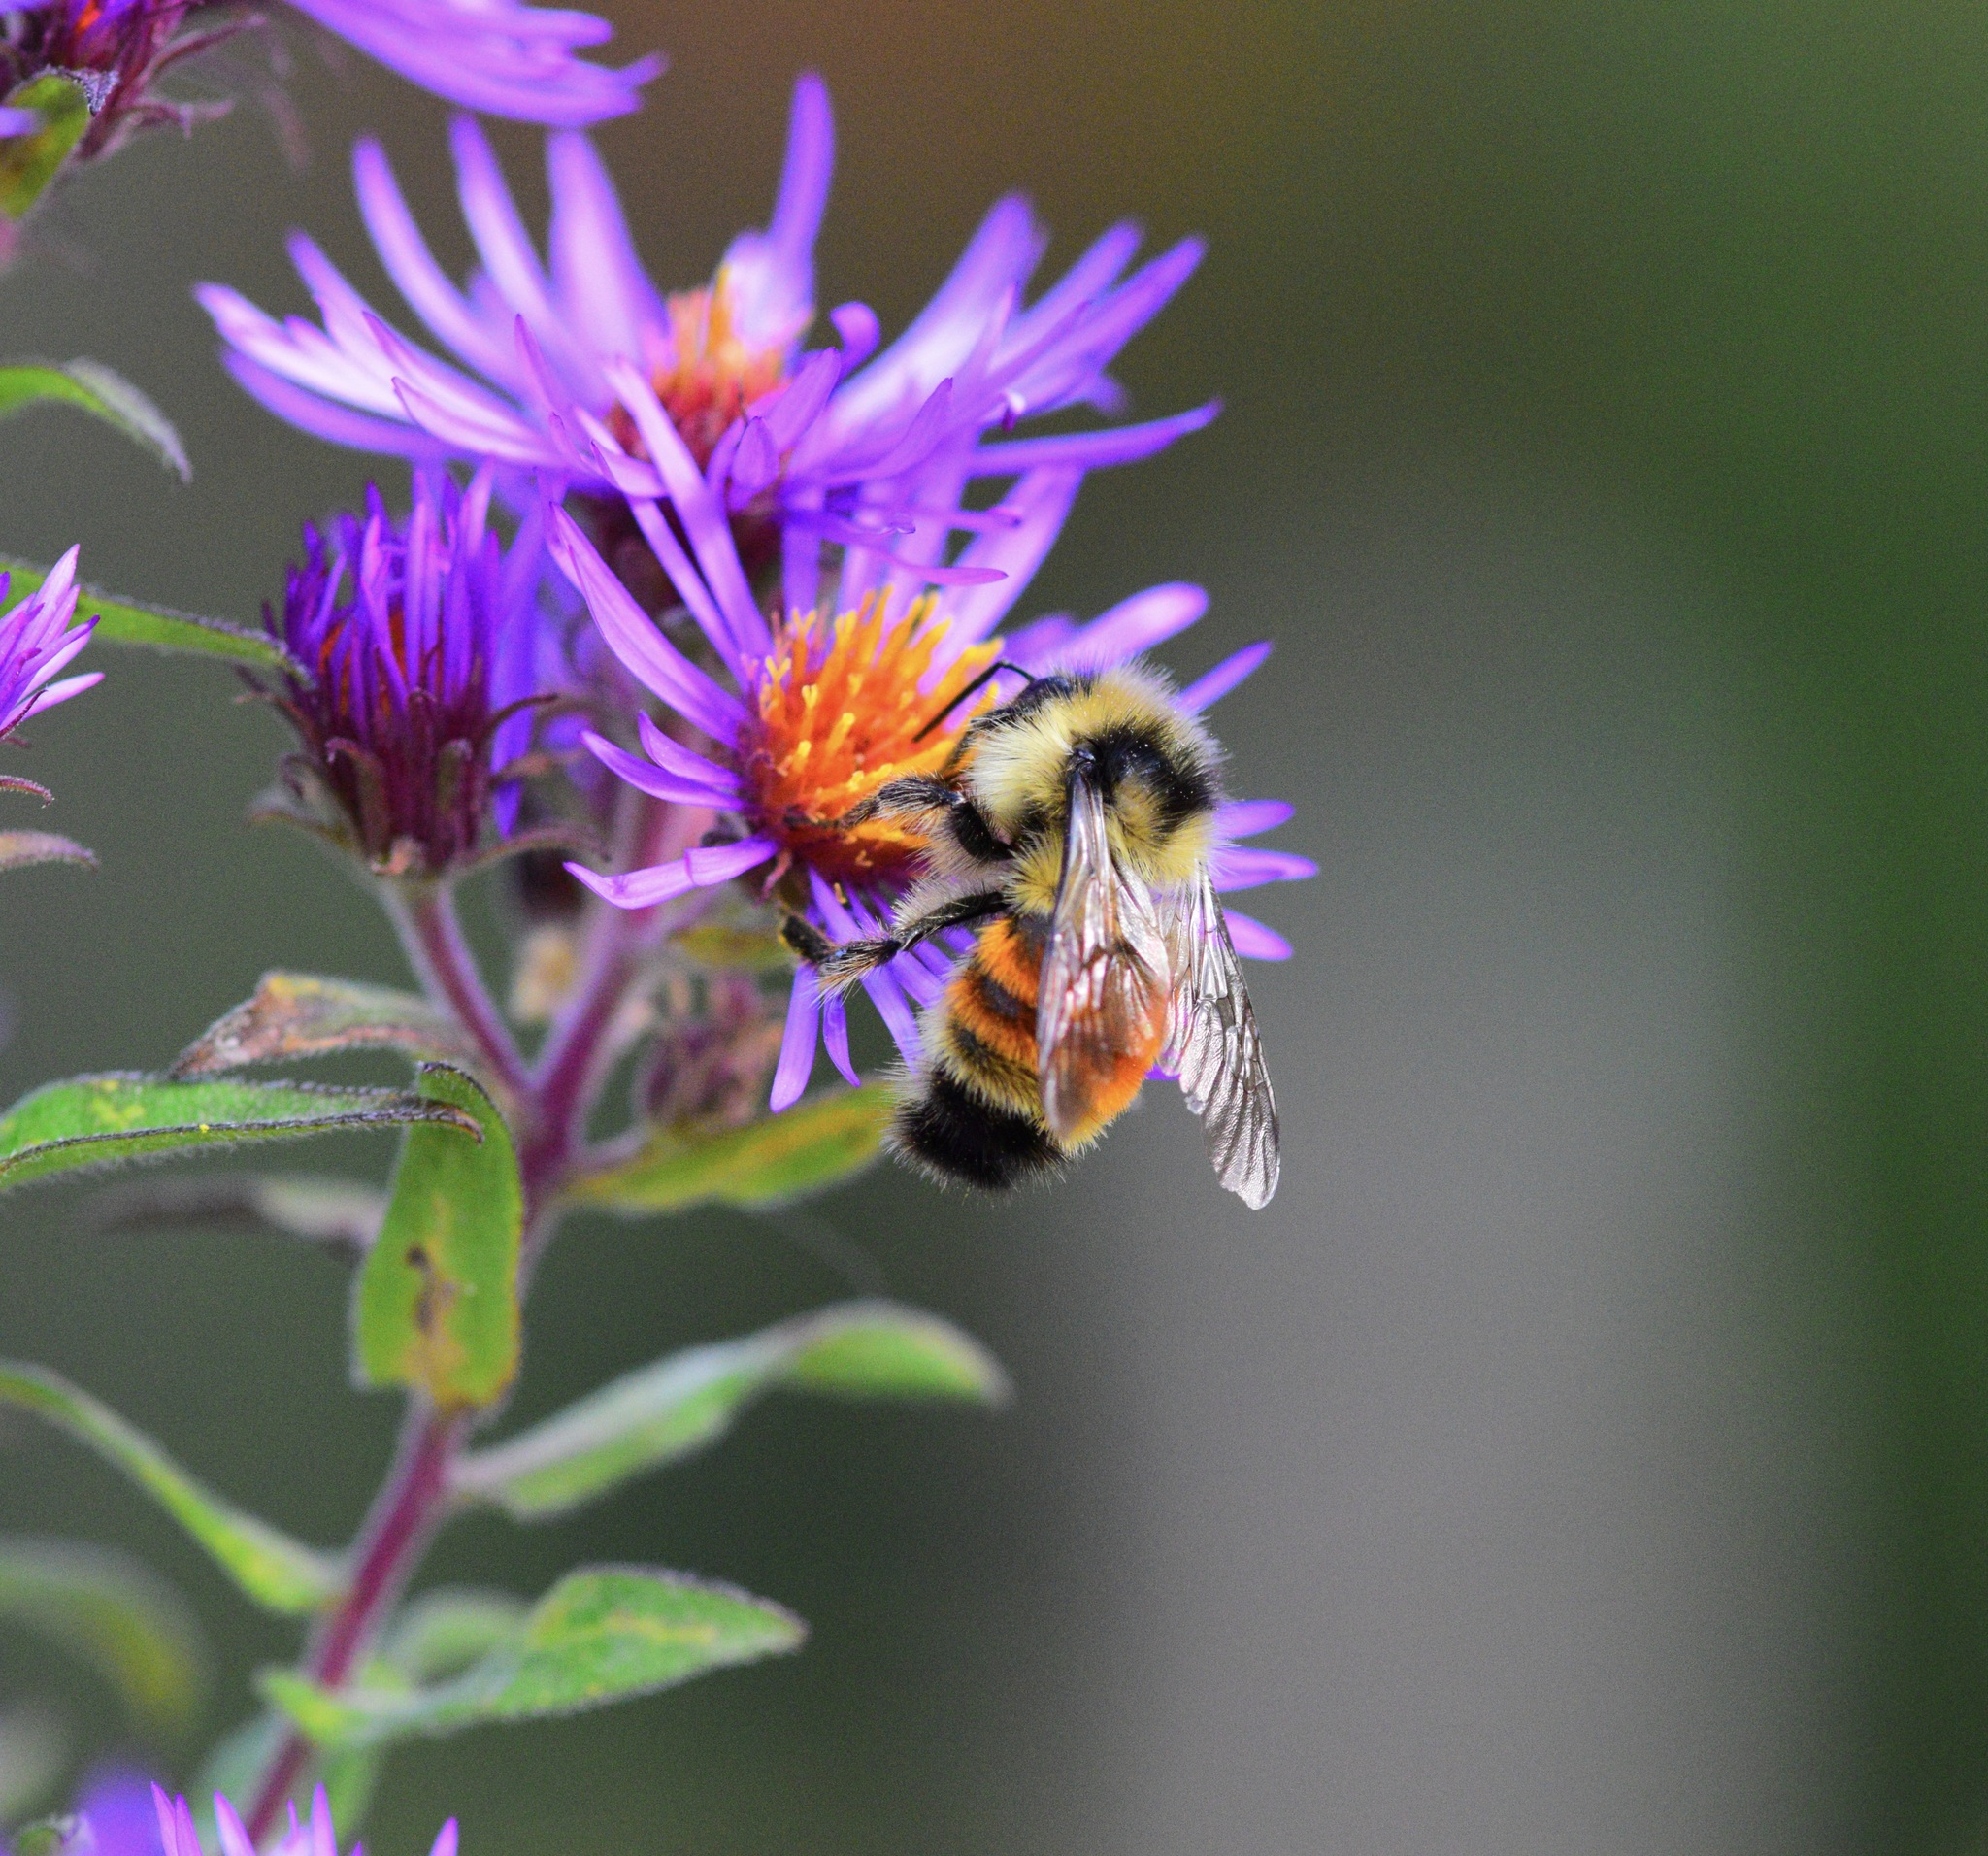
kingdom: Animalia
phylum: Arthropoda
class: Insecta
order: Hymenoptera
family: Apidae
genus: Bombus
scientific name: Bombus ternarius
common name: Tri-colored bumble bee
